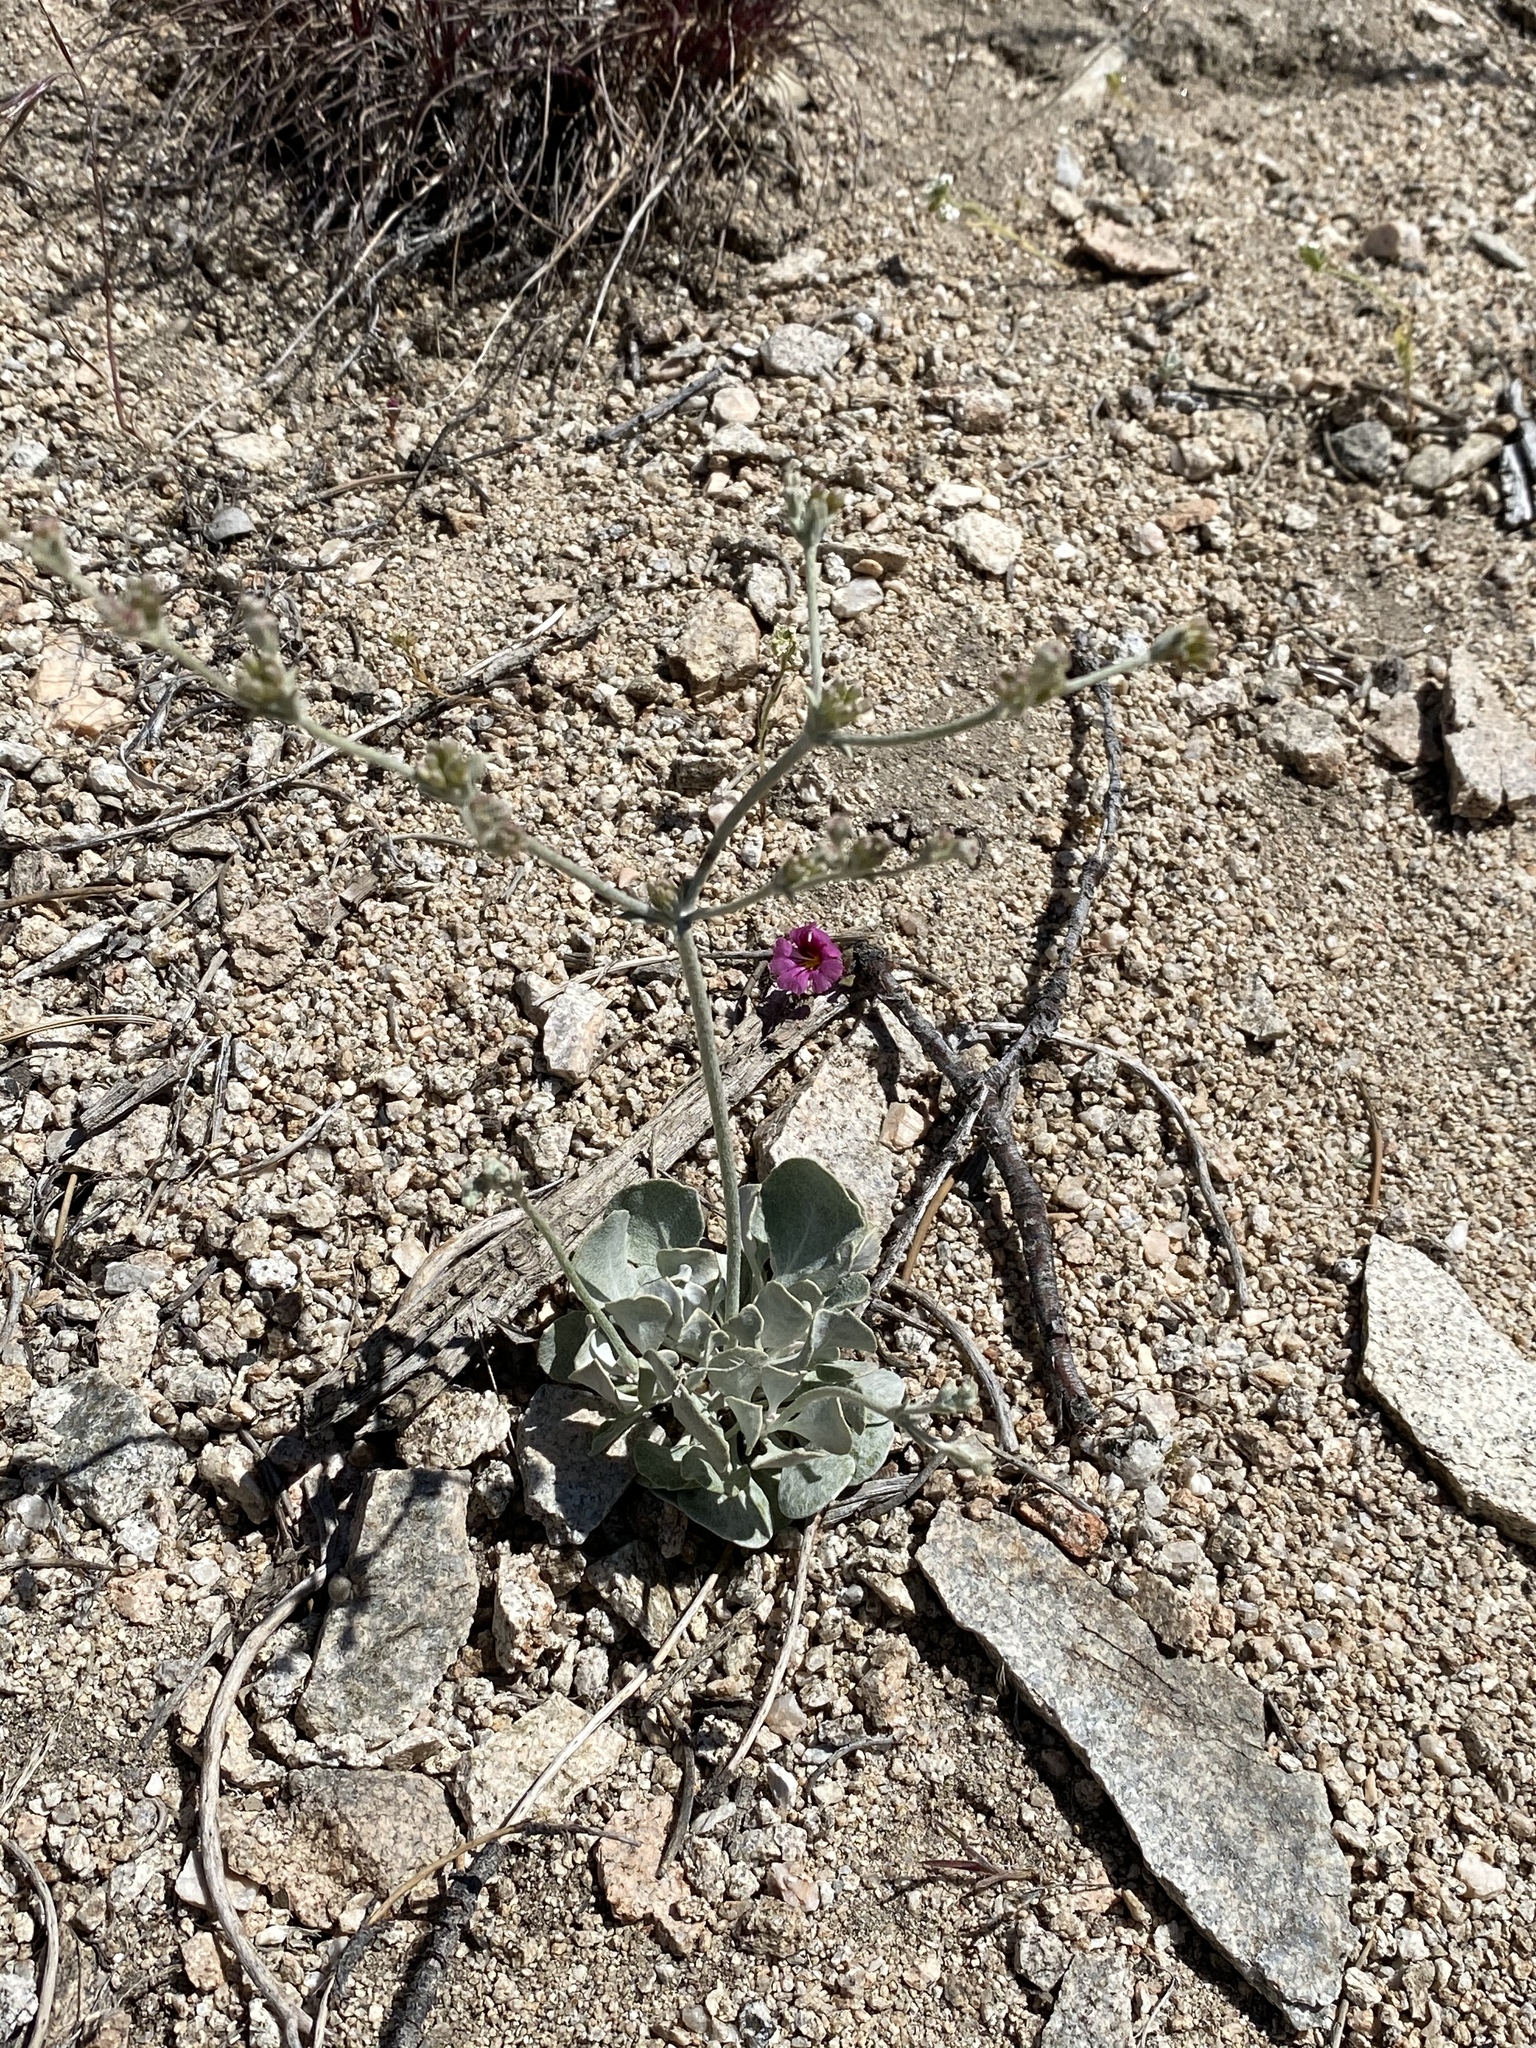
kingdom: Plantae
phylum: Tracheophyta
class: Magnoliopsida
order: Caryophyllales
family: Polygonaceae
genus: Eriogonum
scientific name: Eriogonum saxatile
